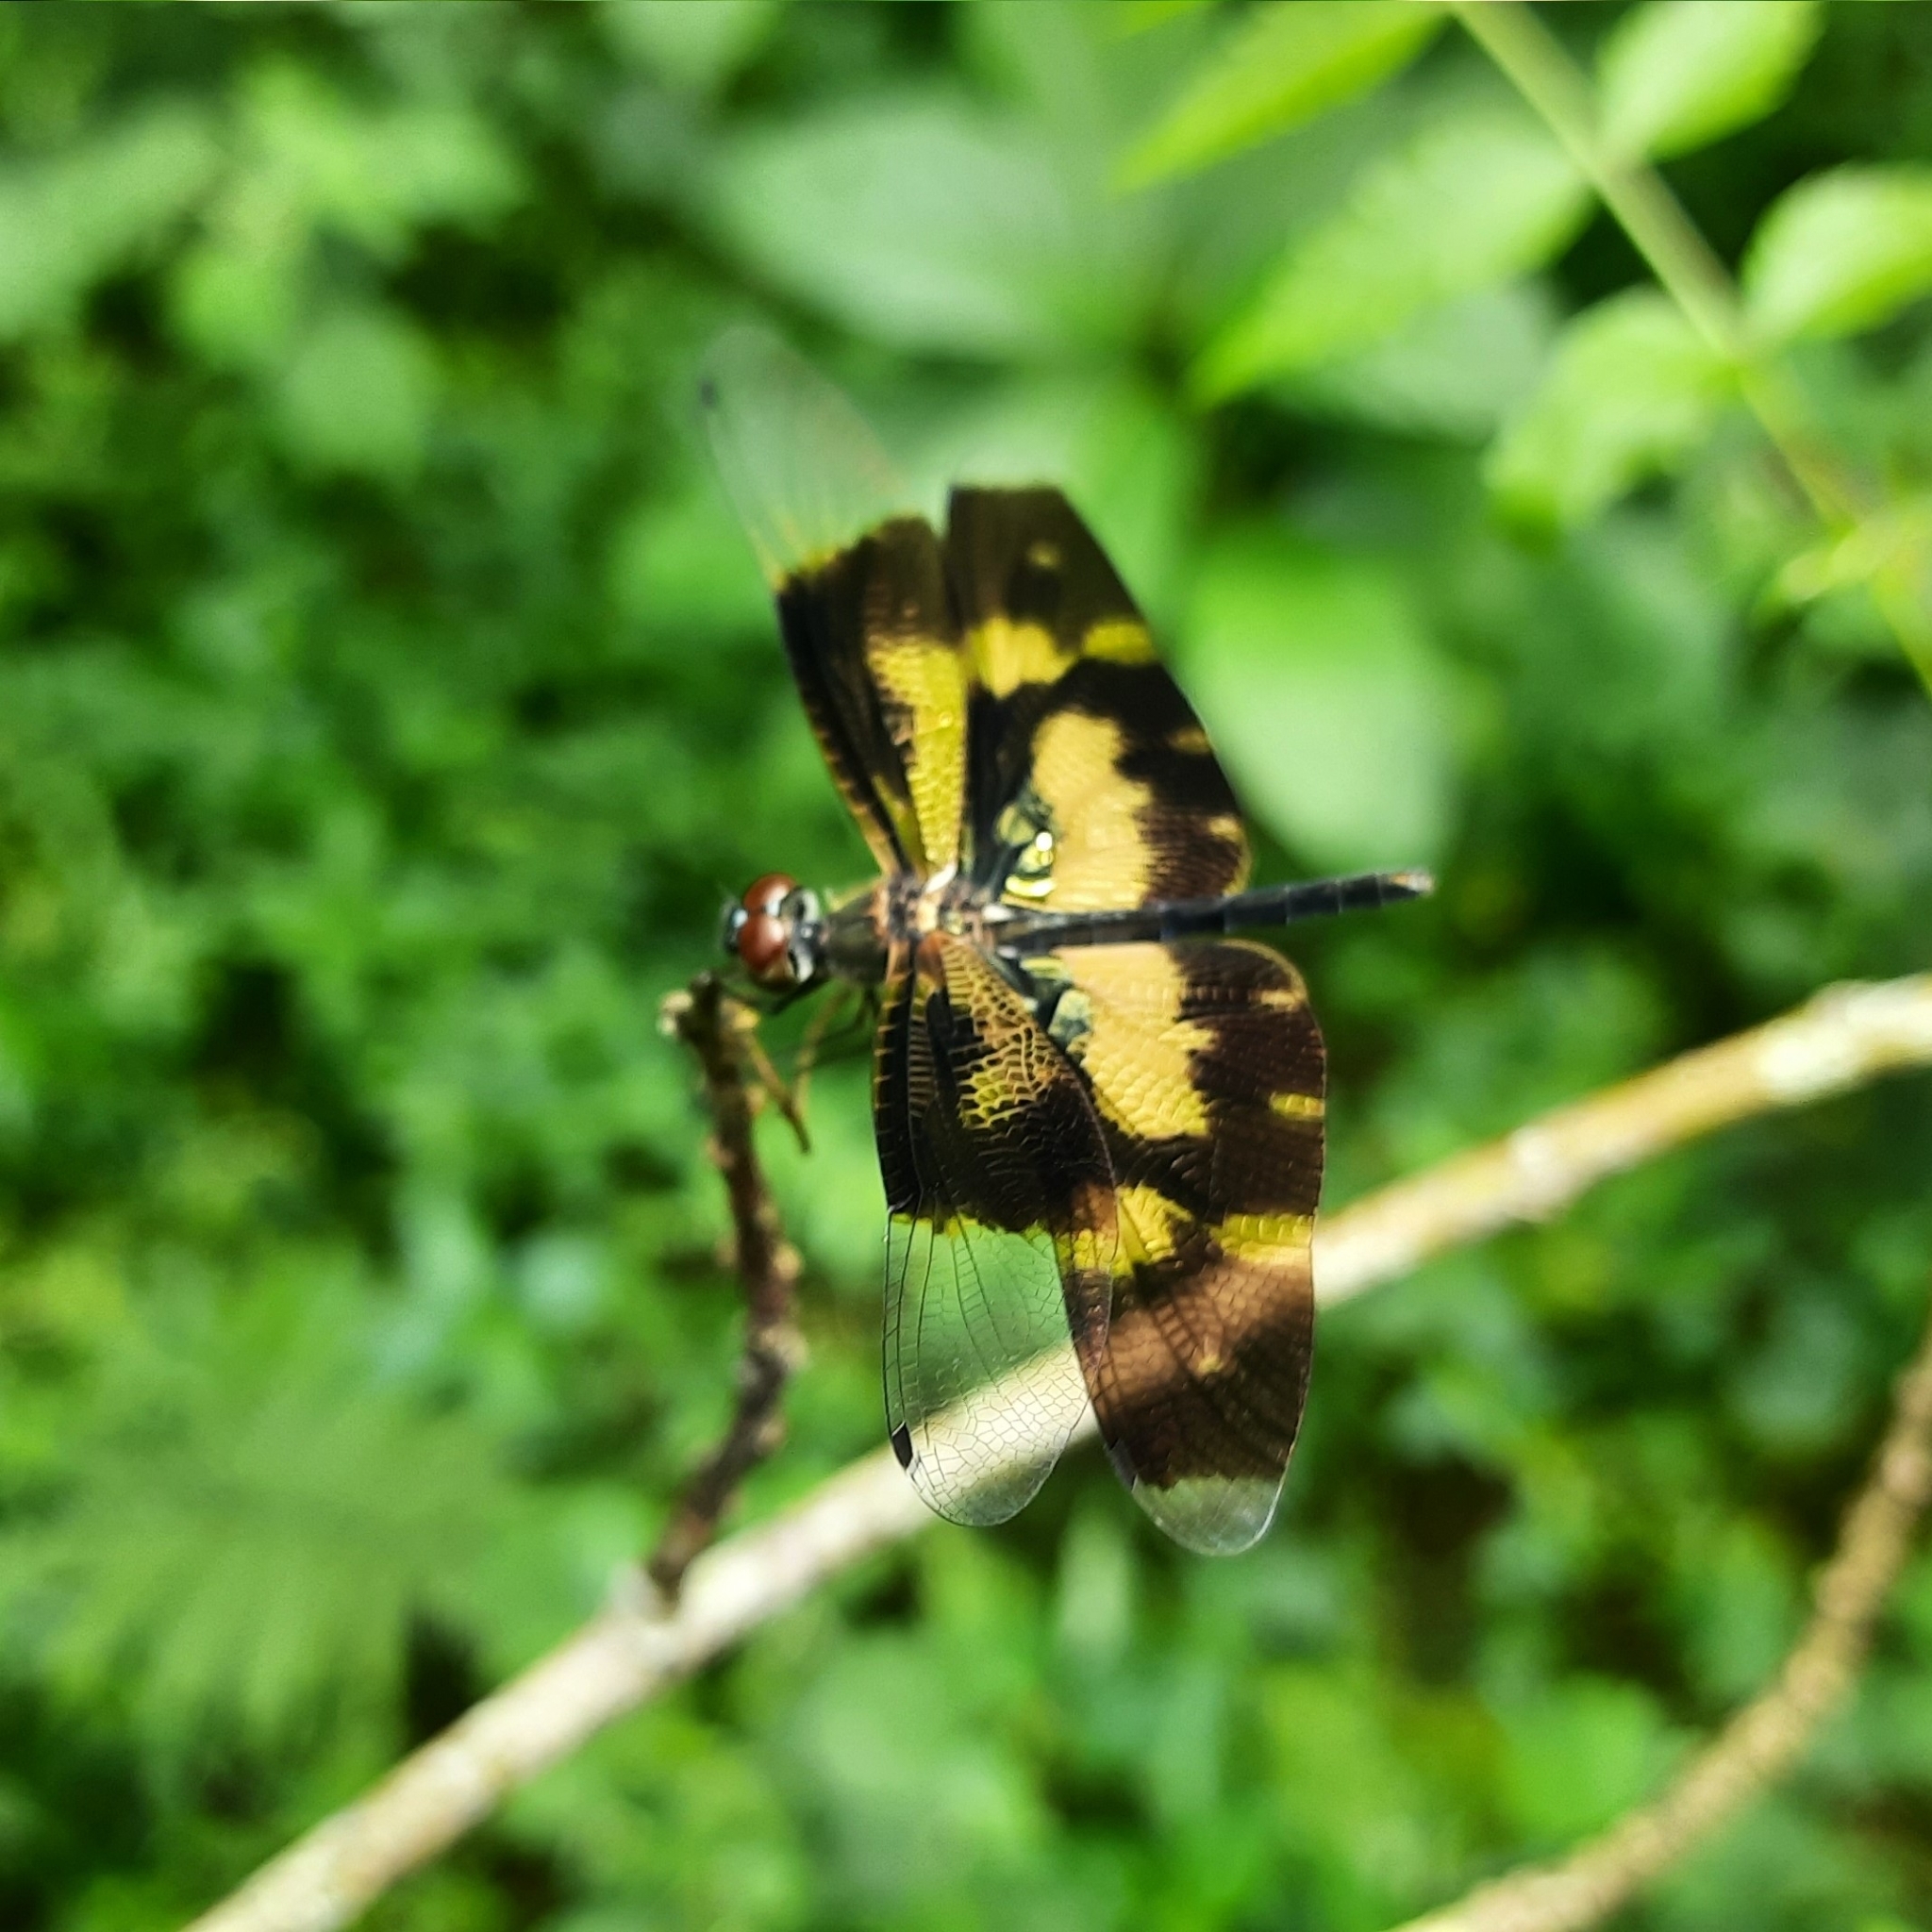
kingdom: Animalia
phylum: Arthropoda
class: Insecta
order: Odonata
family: Libellulidae
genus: Rhyothemis
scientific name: Rhyothemis variegata
